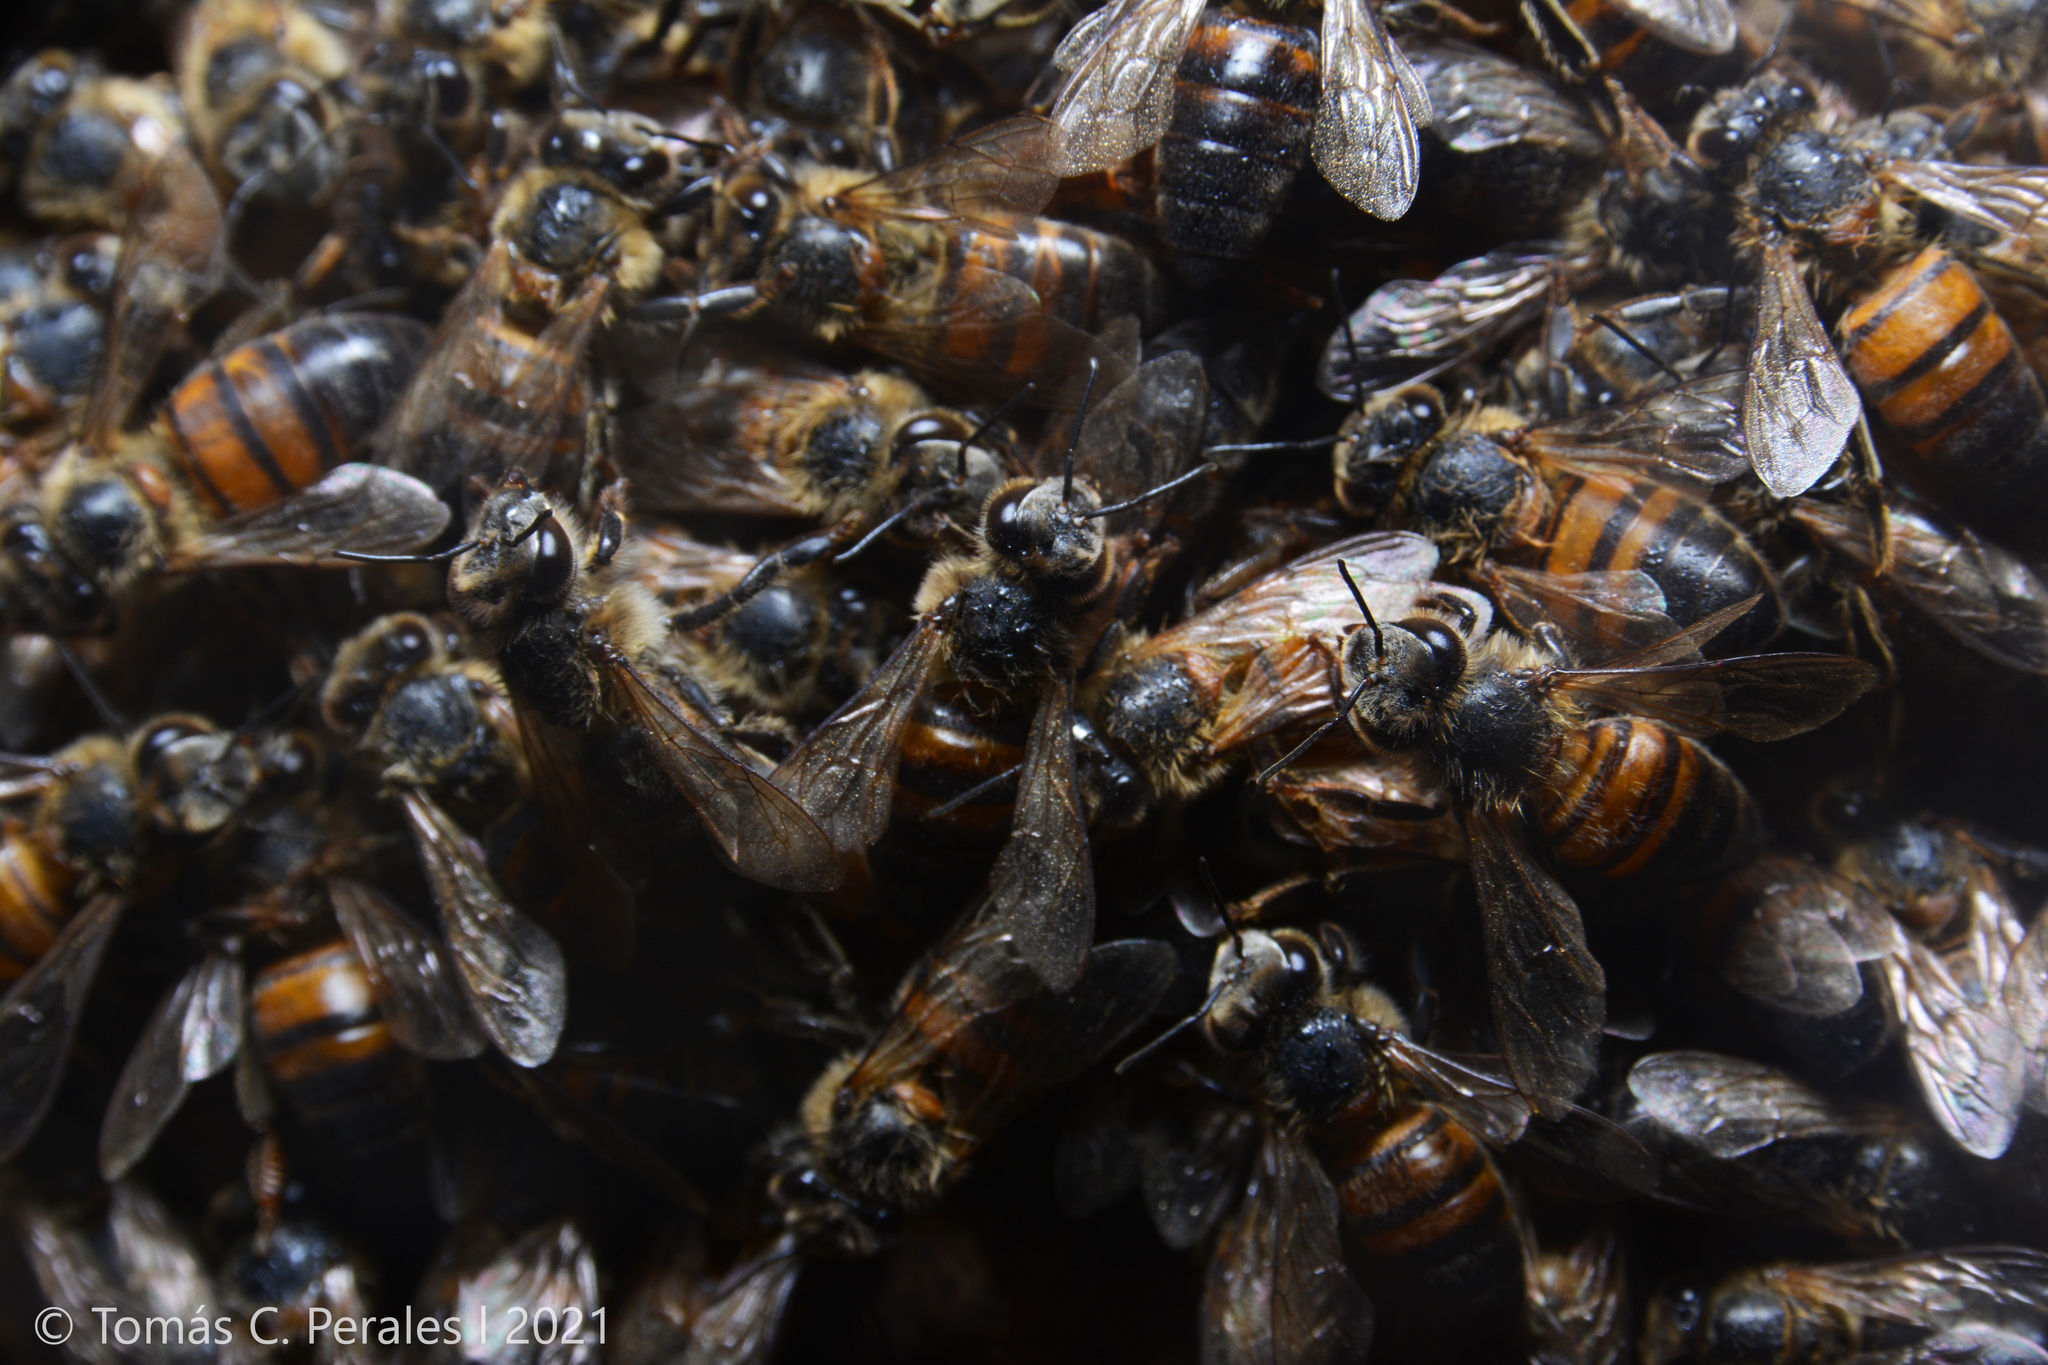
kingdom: Animalia
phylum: Arthropoda
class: Insecta
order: Hymenoptera
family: Apidae
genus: Apis
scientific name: Apis mellifera
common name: Honey bee
